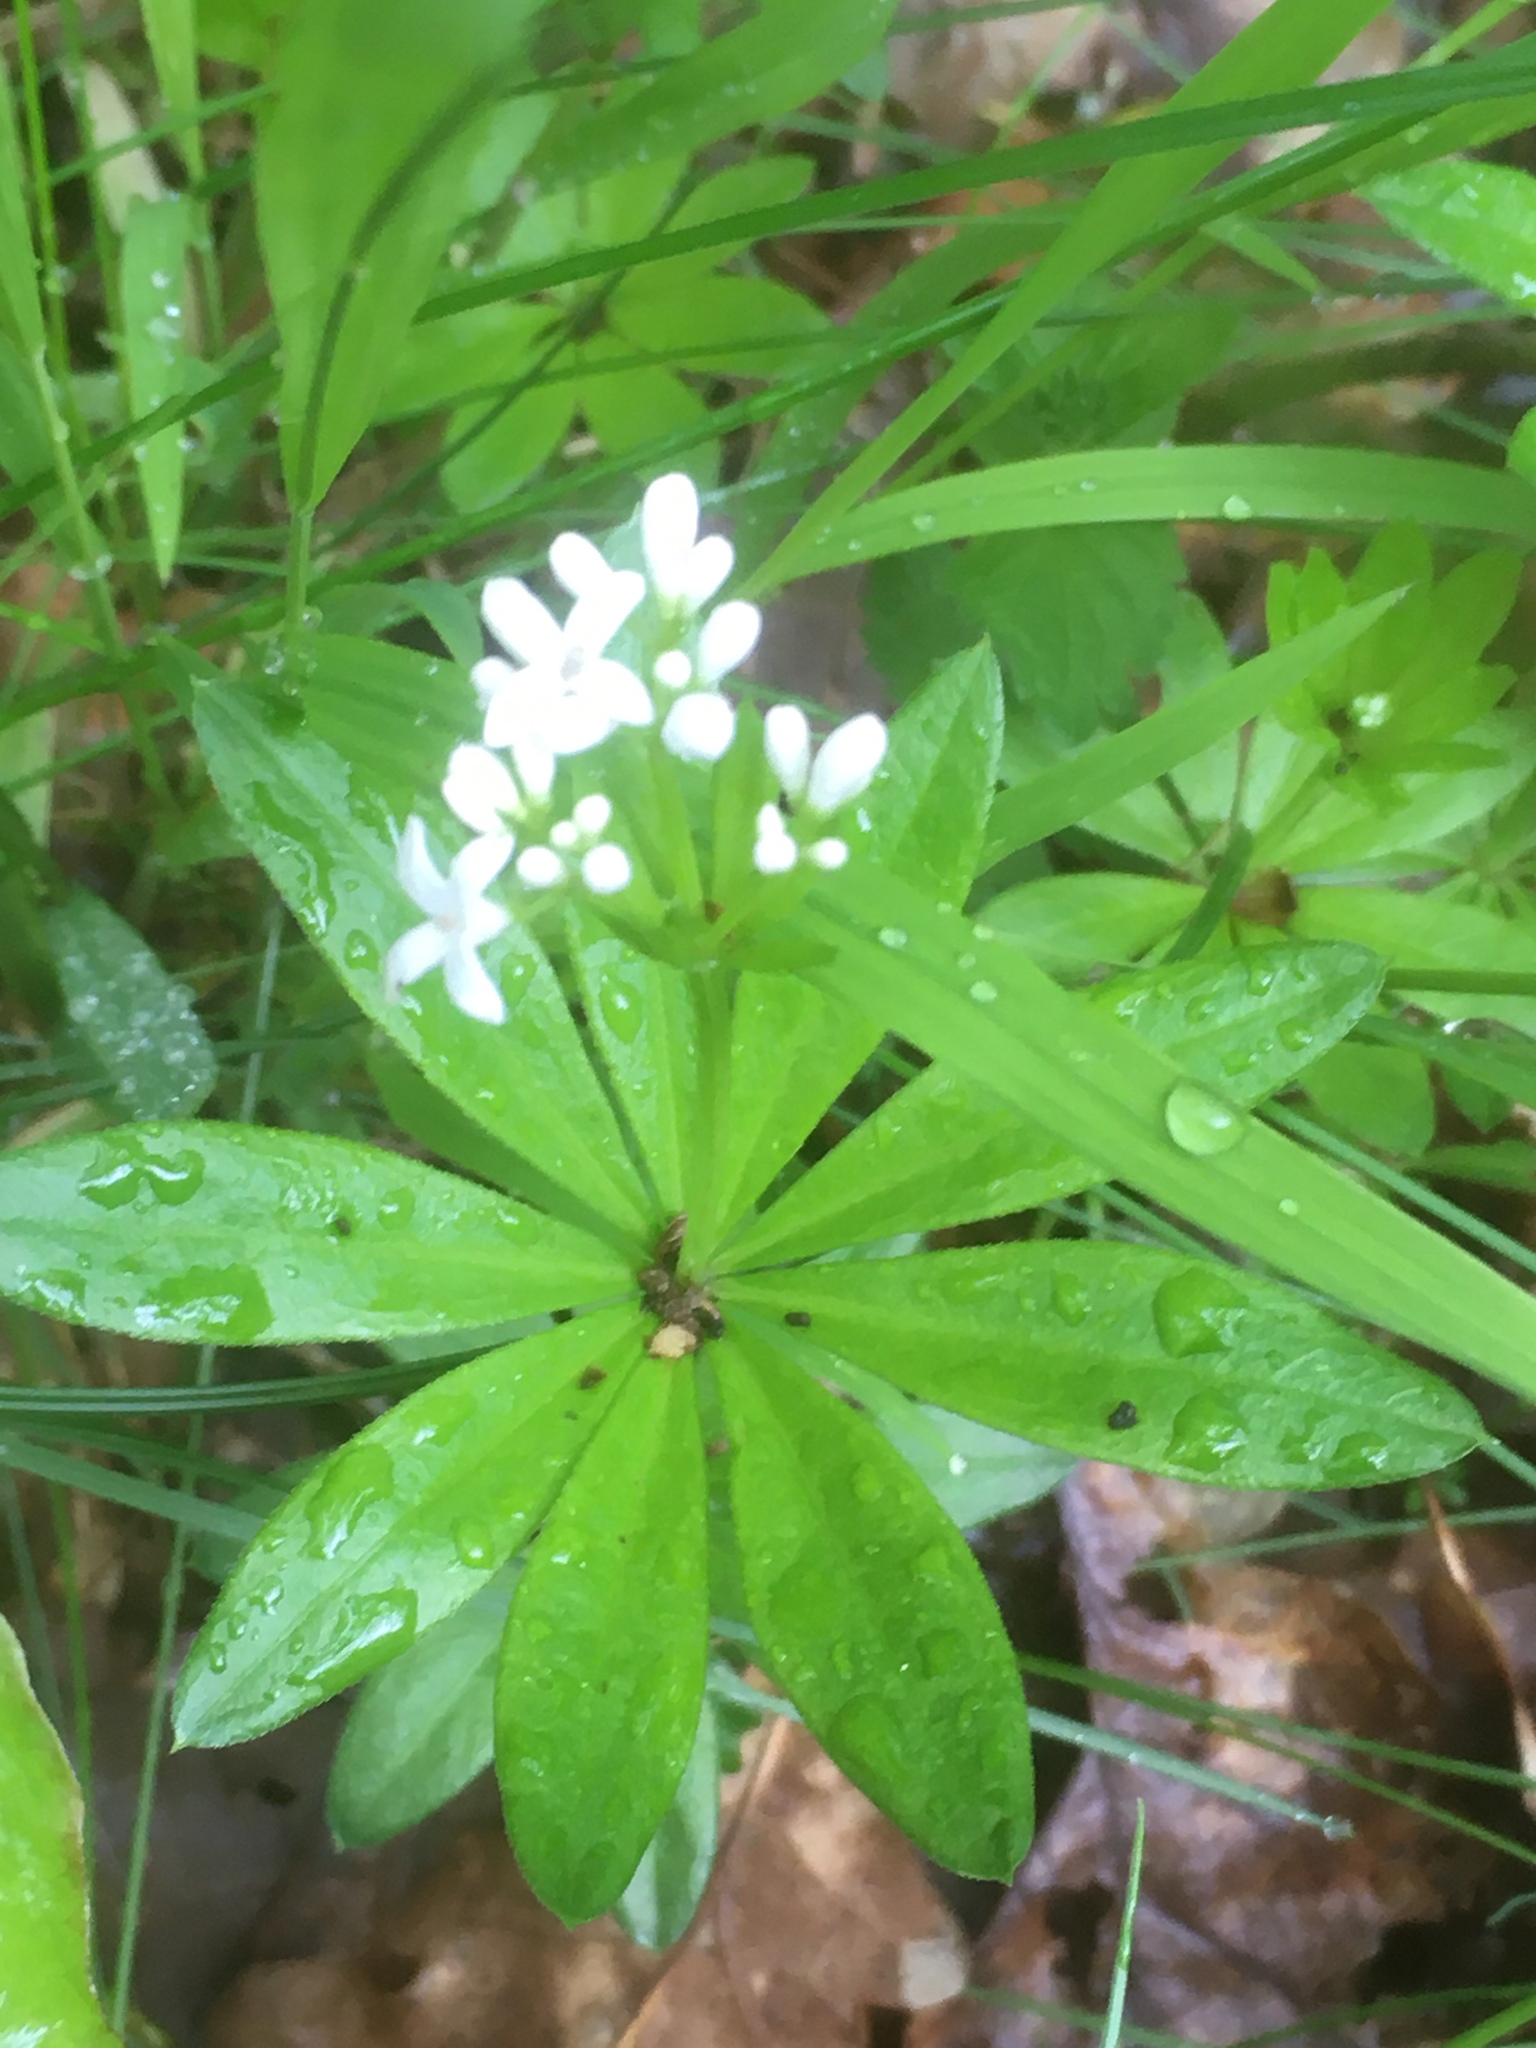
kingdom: Plantae
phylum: Tracheophyta
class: Magnoliopsida
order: Gentianales
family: Rubiaceae
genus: Galium
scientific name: Galium odoratum
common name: Sweet woodruff
